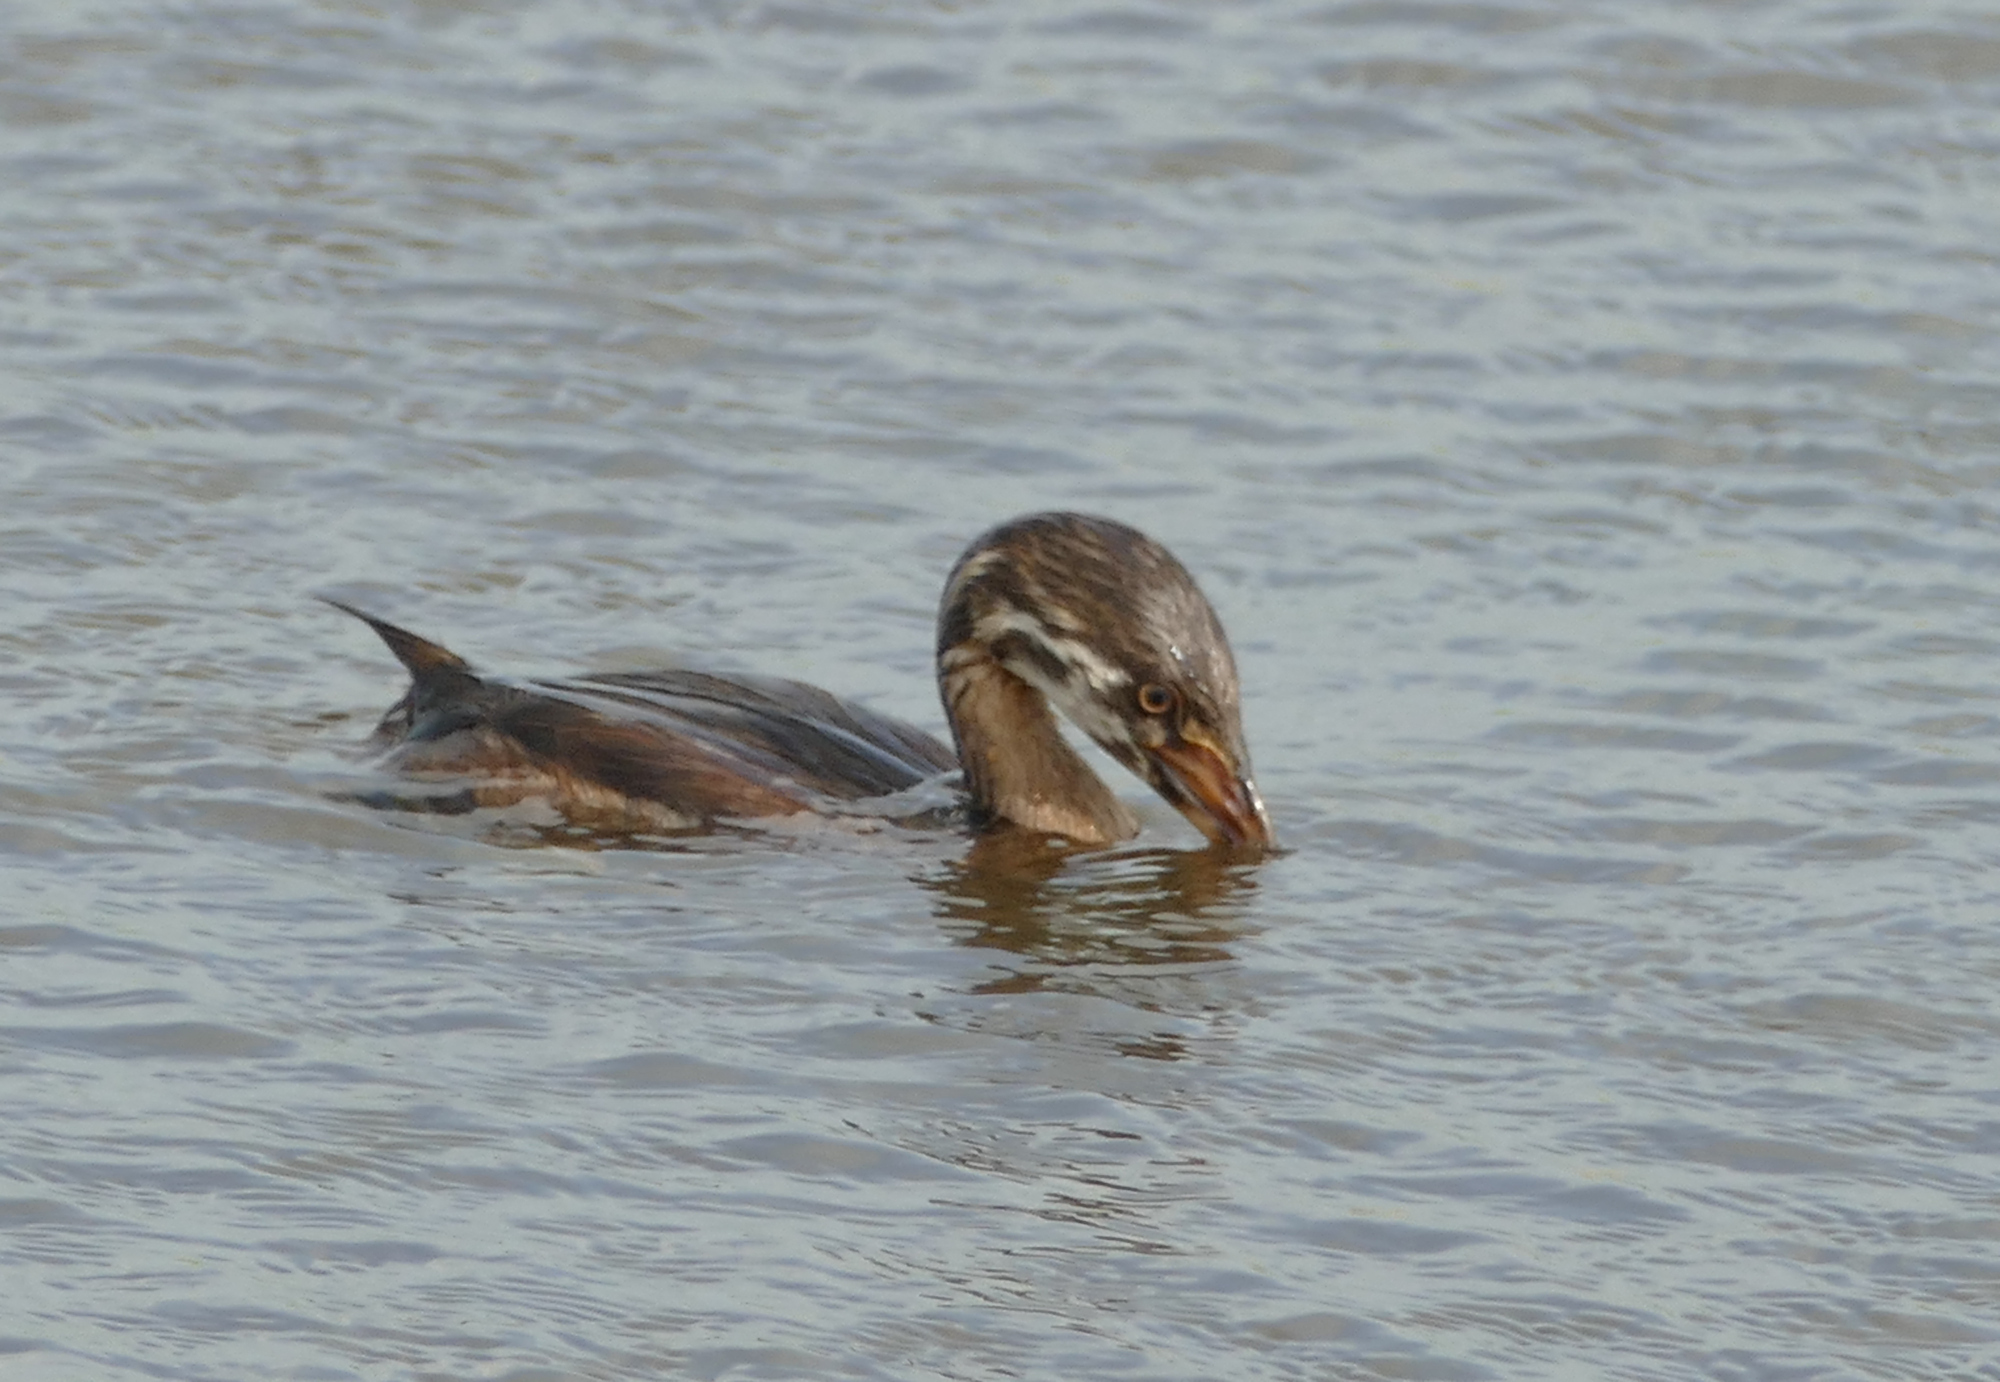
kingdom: Animalia
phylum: Chordata
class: Aves
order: Podicipediformes
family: Podicipedidae
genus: Podilymbus
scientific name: Podilymbus podiceps
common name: Pied-billed grebe
